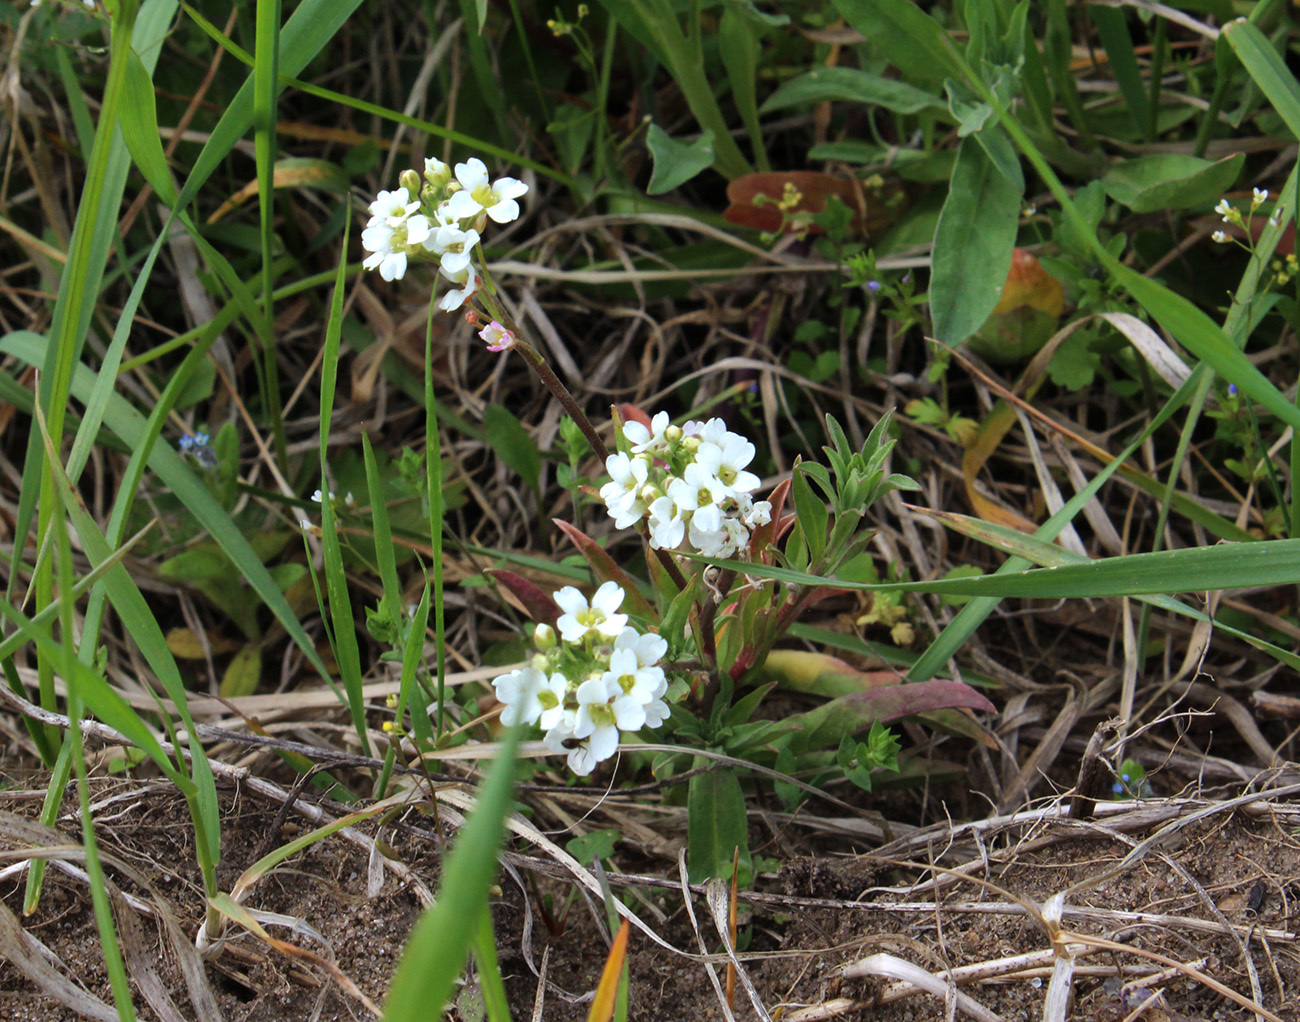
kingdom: Plantae
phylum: Tracheophyta
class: Magnoliopsida
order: Brassicales
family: Brassicaceae
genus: Berteroa
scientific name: Berteroa incana
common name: Hoary alison
